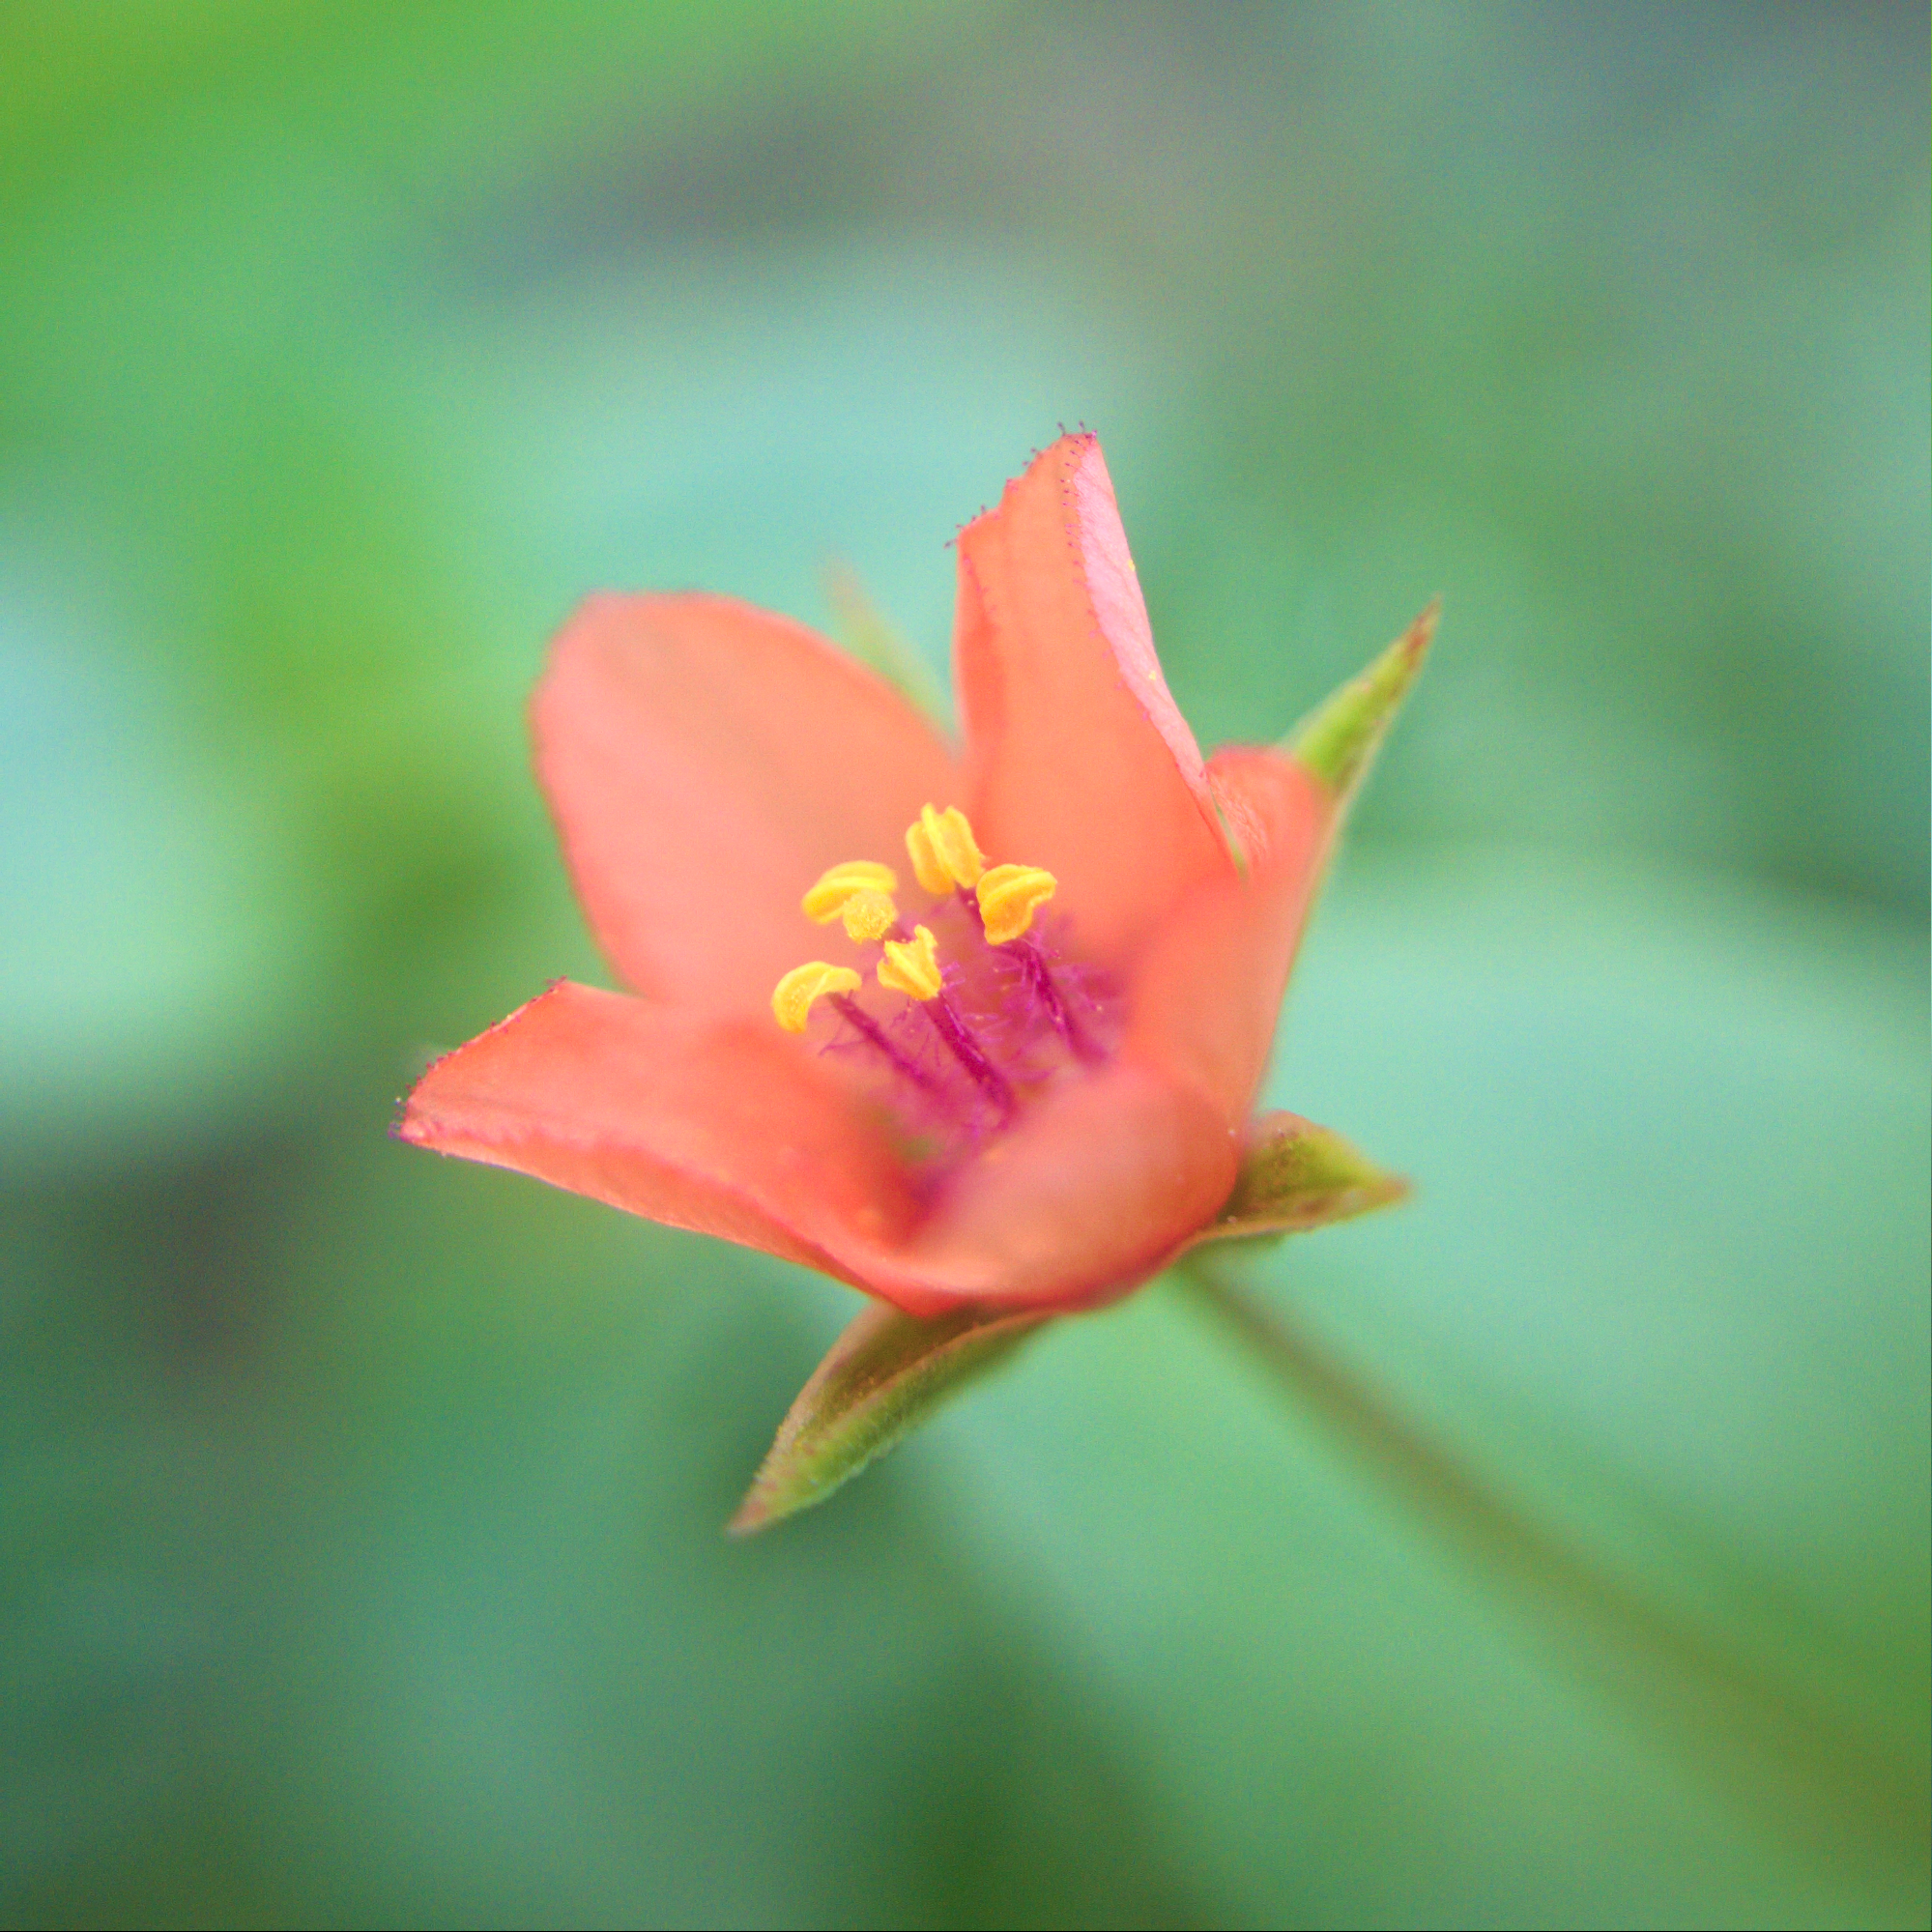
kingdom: Plantae
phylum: Tracheophyta
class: Magnoliopsida
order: Ericales
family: Primulaceae
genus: Lysimachia
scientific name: Lysimachia arvensis
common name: Scarlet pimpernel
